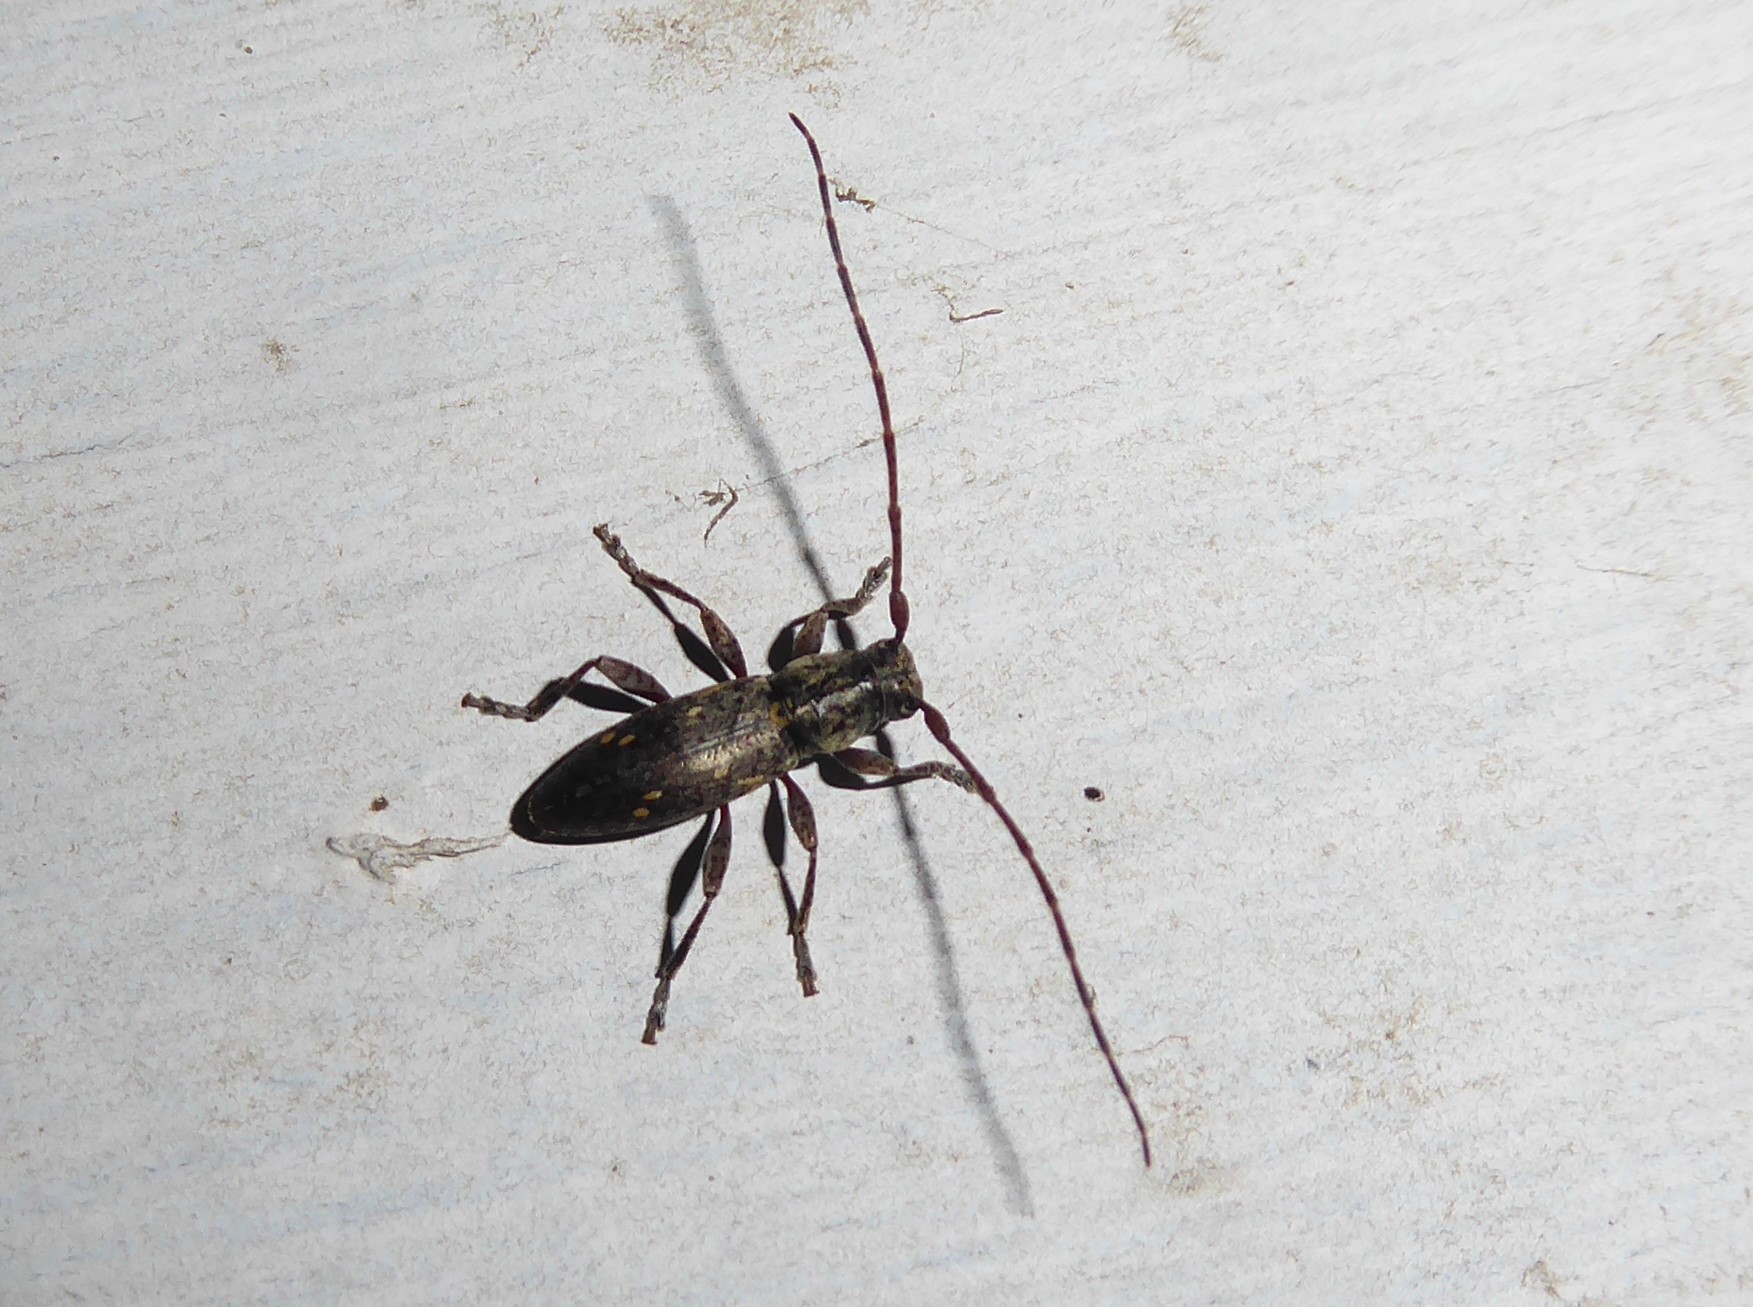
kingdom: Animalia
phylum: Arthropoda
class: Insecta
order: Coleoptera
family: Cerambycidae
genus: Xylotoles
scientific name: Xylotoles griseus
